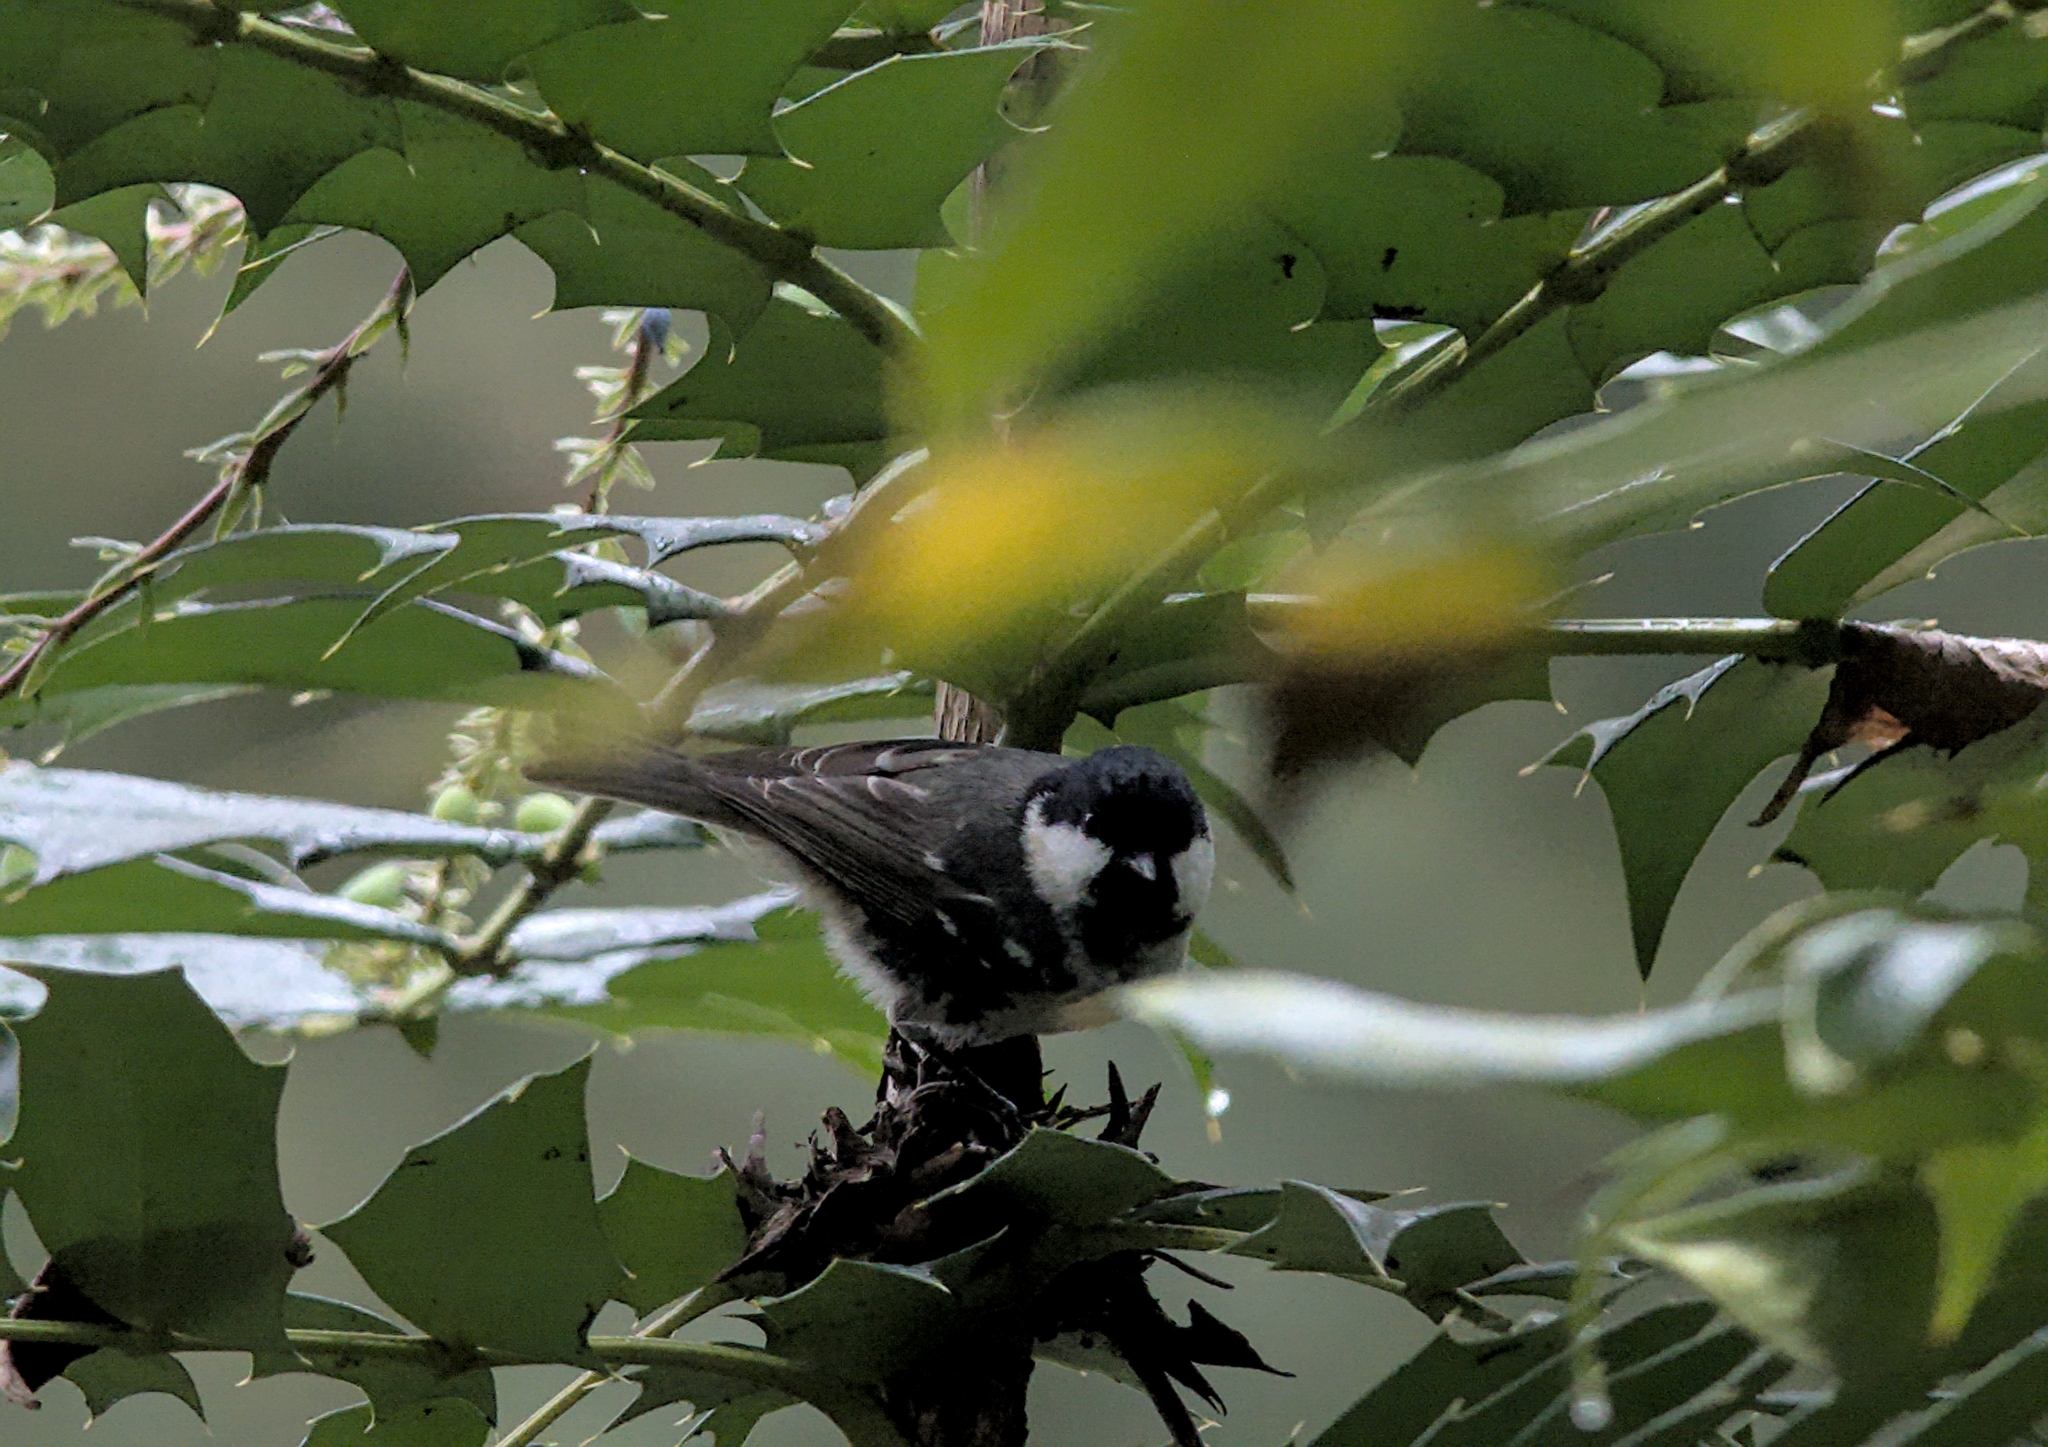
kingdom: Animalia
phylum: Chordata
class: Aves
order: Passeriformes
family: Paridae
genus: Periparus
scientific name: Periparus ater
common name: Coal tit
